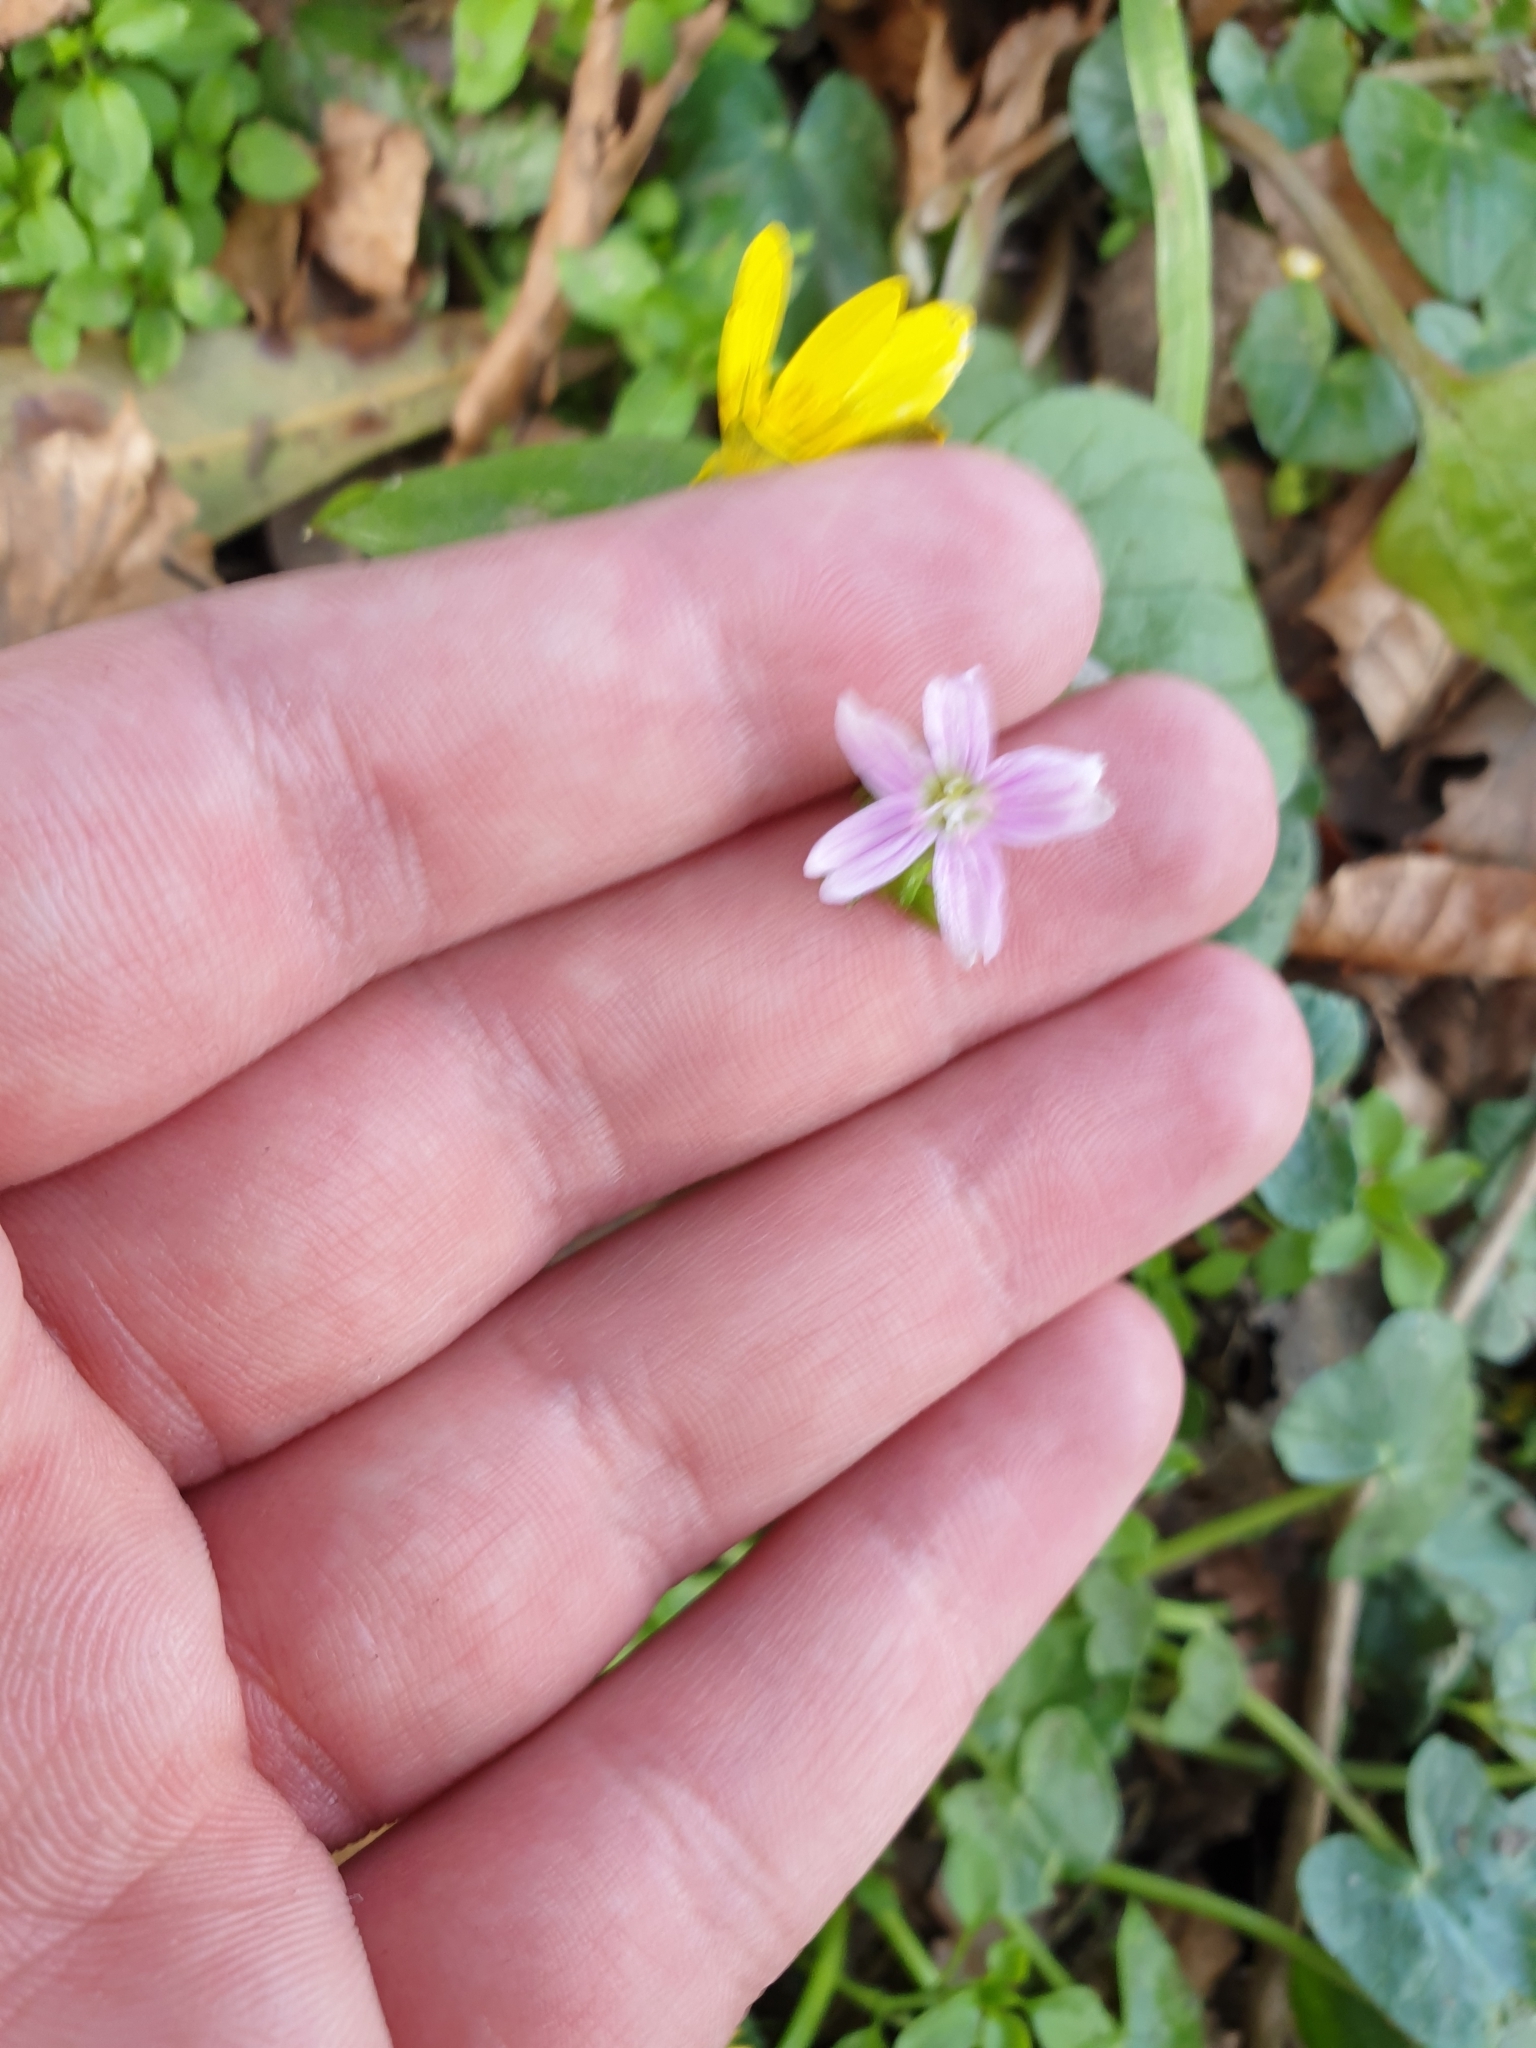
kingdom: Plantae
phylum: Tracheophyta
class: Magnoliopsida
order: Caryophyllales
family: Montiaceae
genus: Claytonia
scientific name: Claytonia sibirica
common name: Pink purslane
